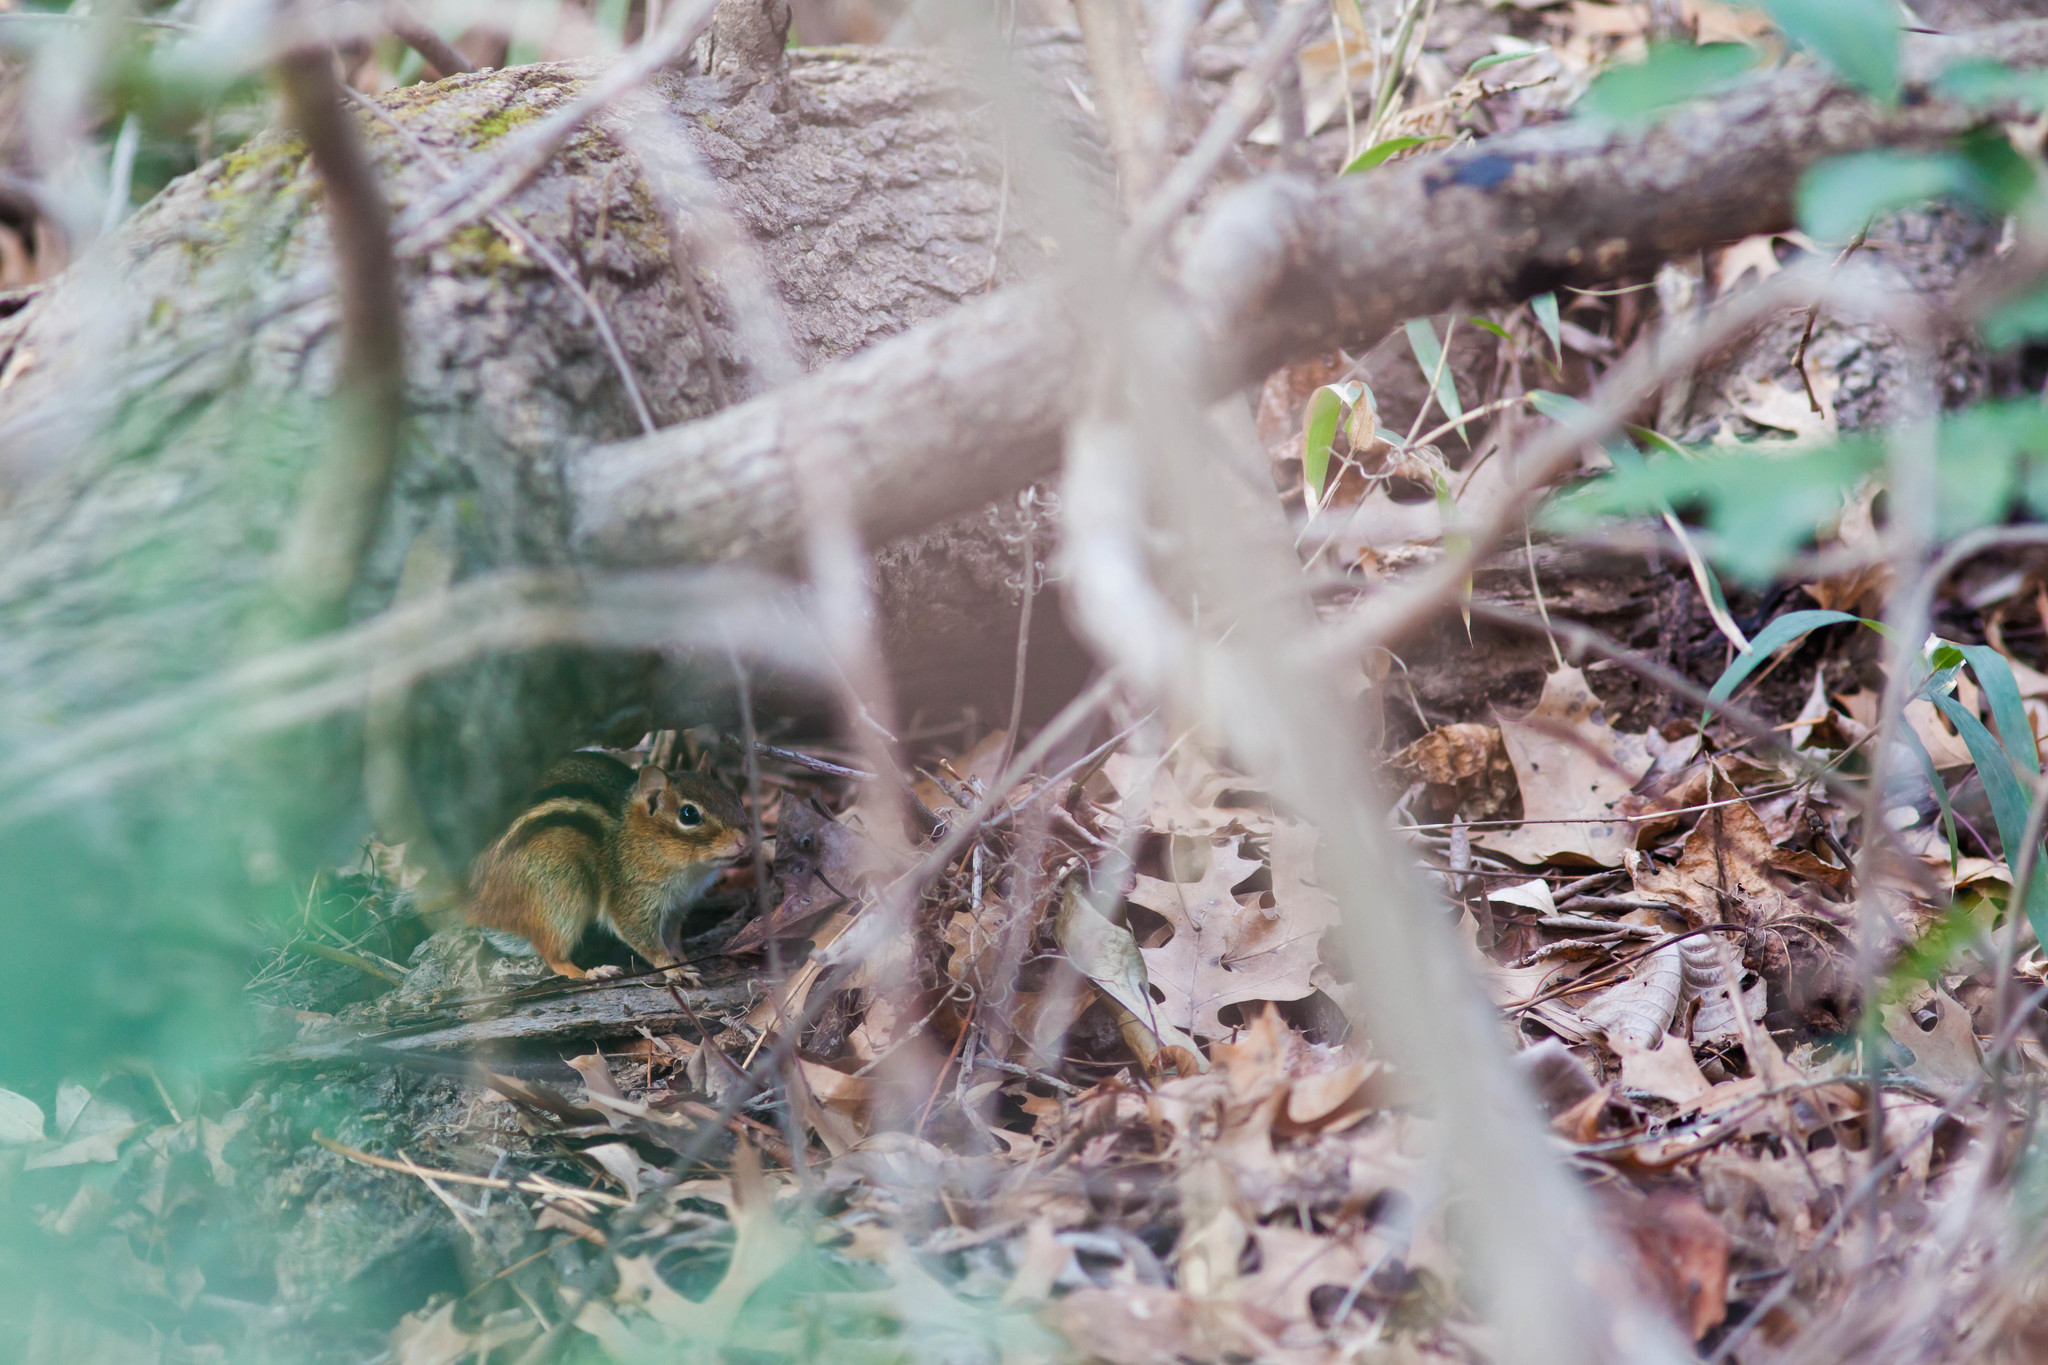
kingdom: Animalia
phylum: Chordata
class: Mammalia
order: Rodentia
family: Sciuridae
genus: Tamias
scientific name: Tamias striatus
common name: Eastern chipmunk
